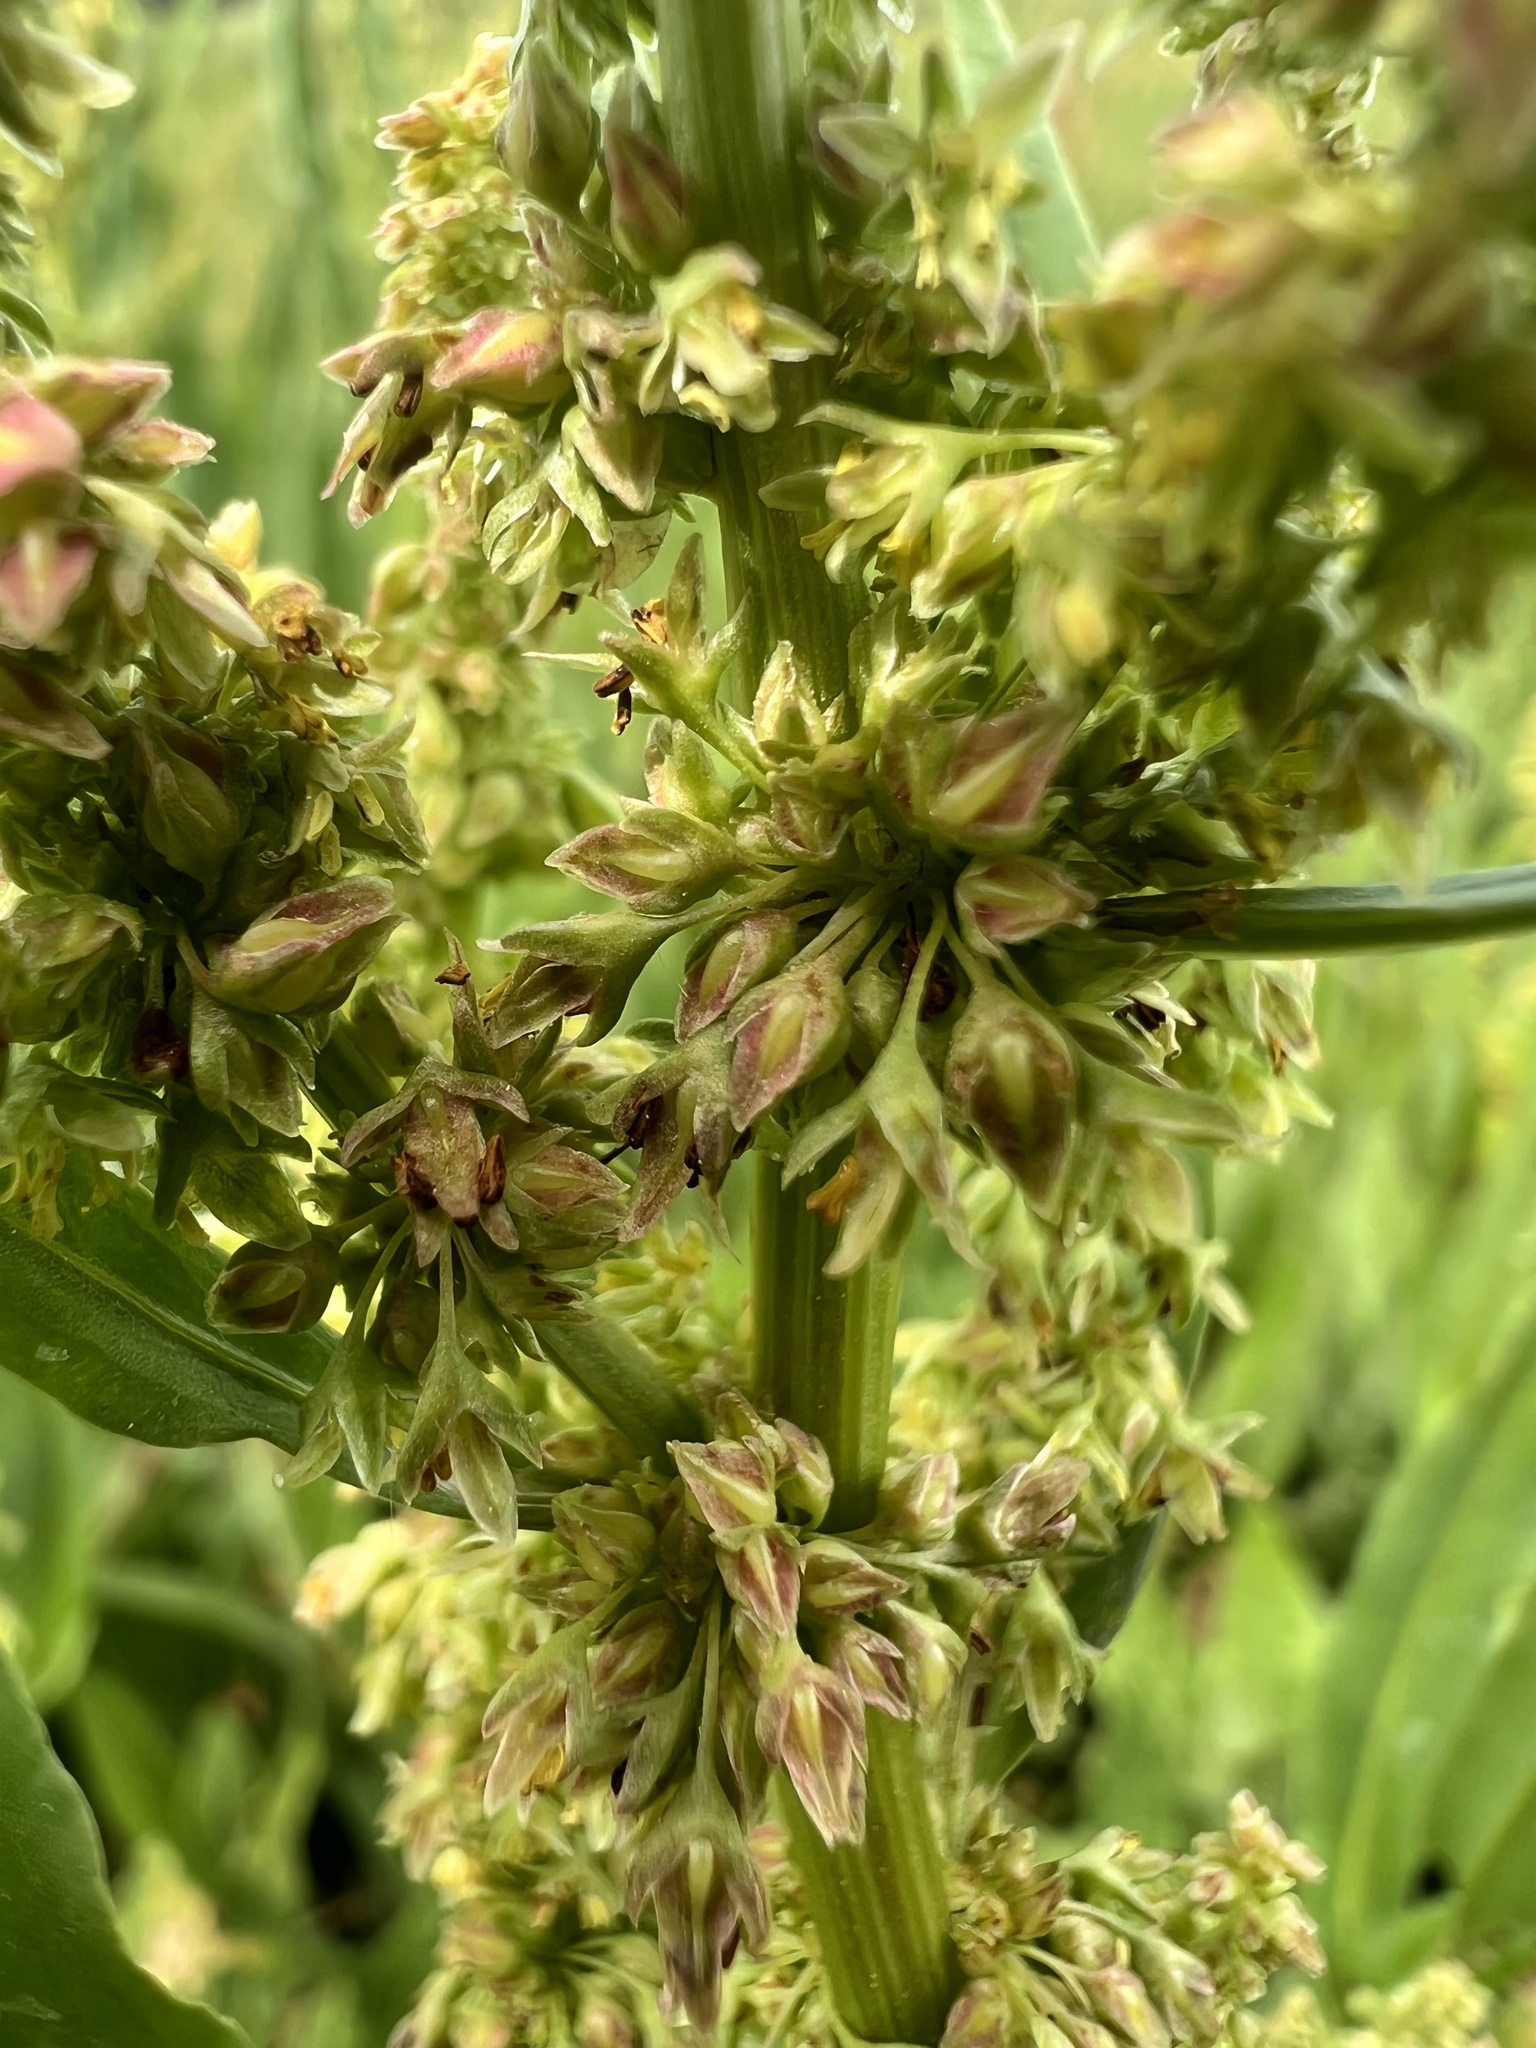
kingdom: Plantae
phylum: Tracheophyta
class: Magnoliopsida
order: Caryophyllales
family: Polygonaceae
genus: Rumex
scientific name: Rumex salicifolius
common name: Willow-leaved dock
